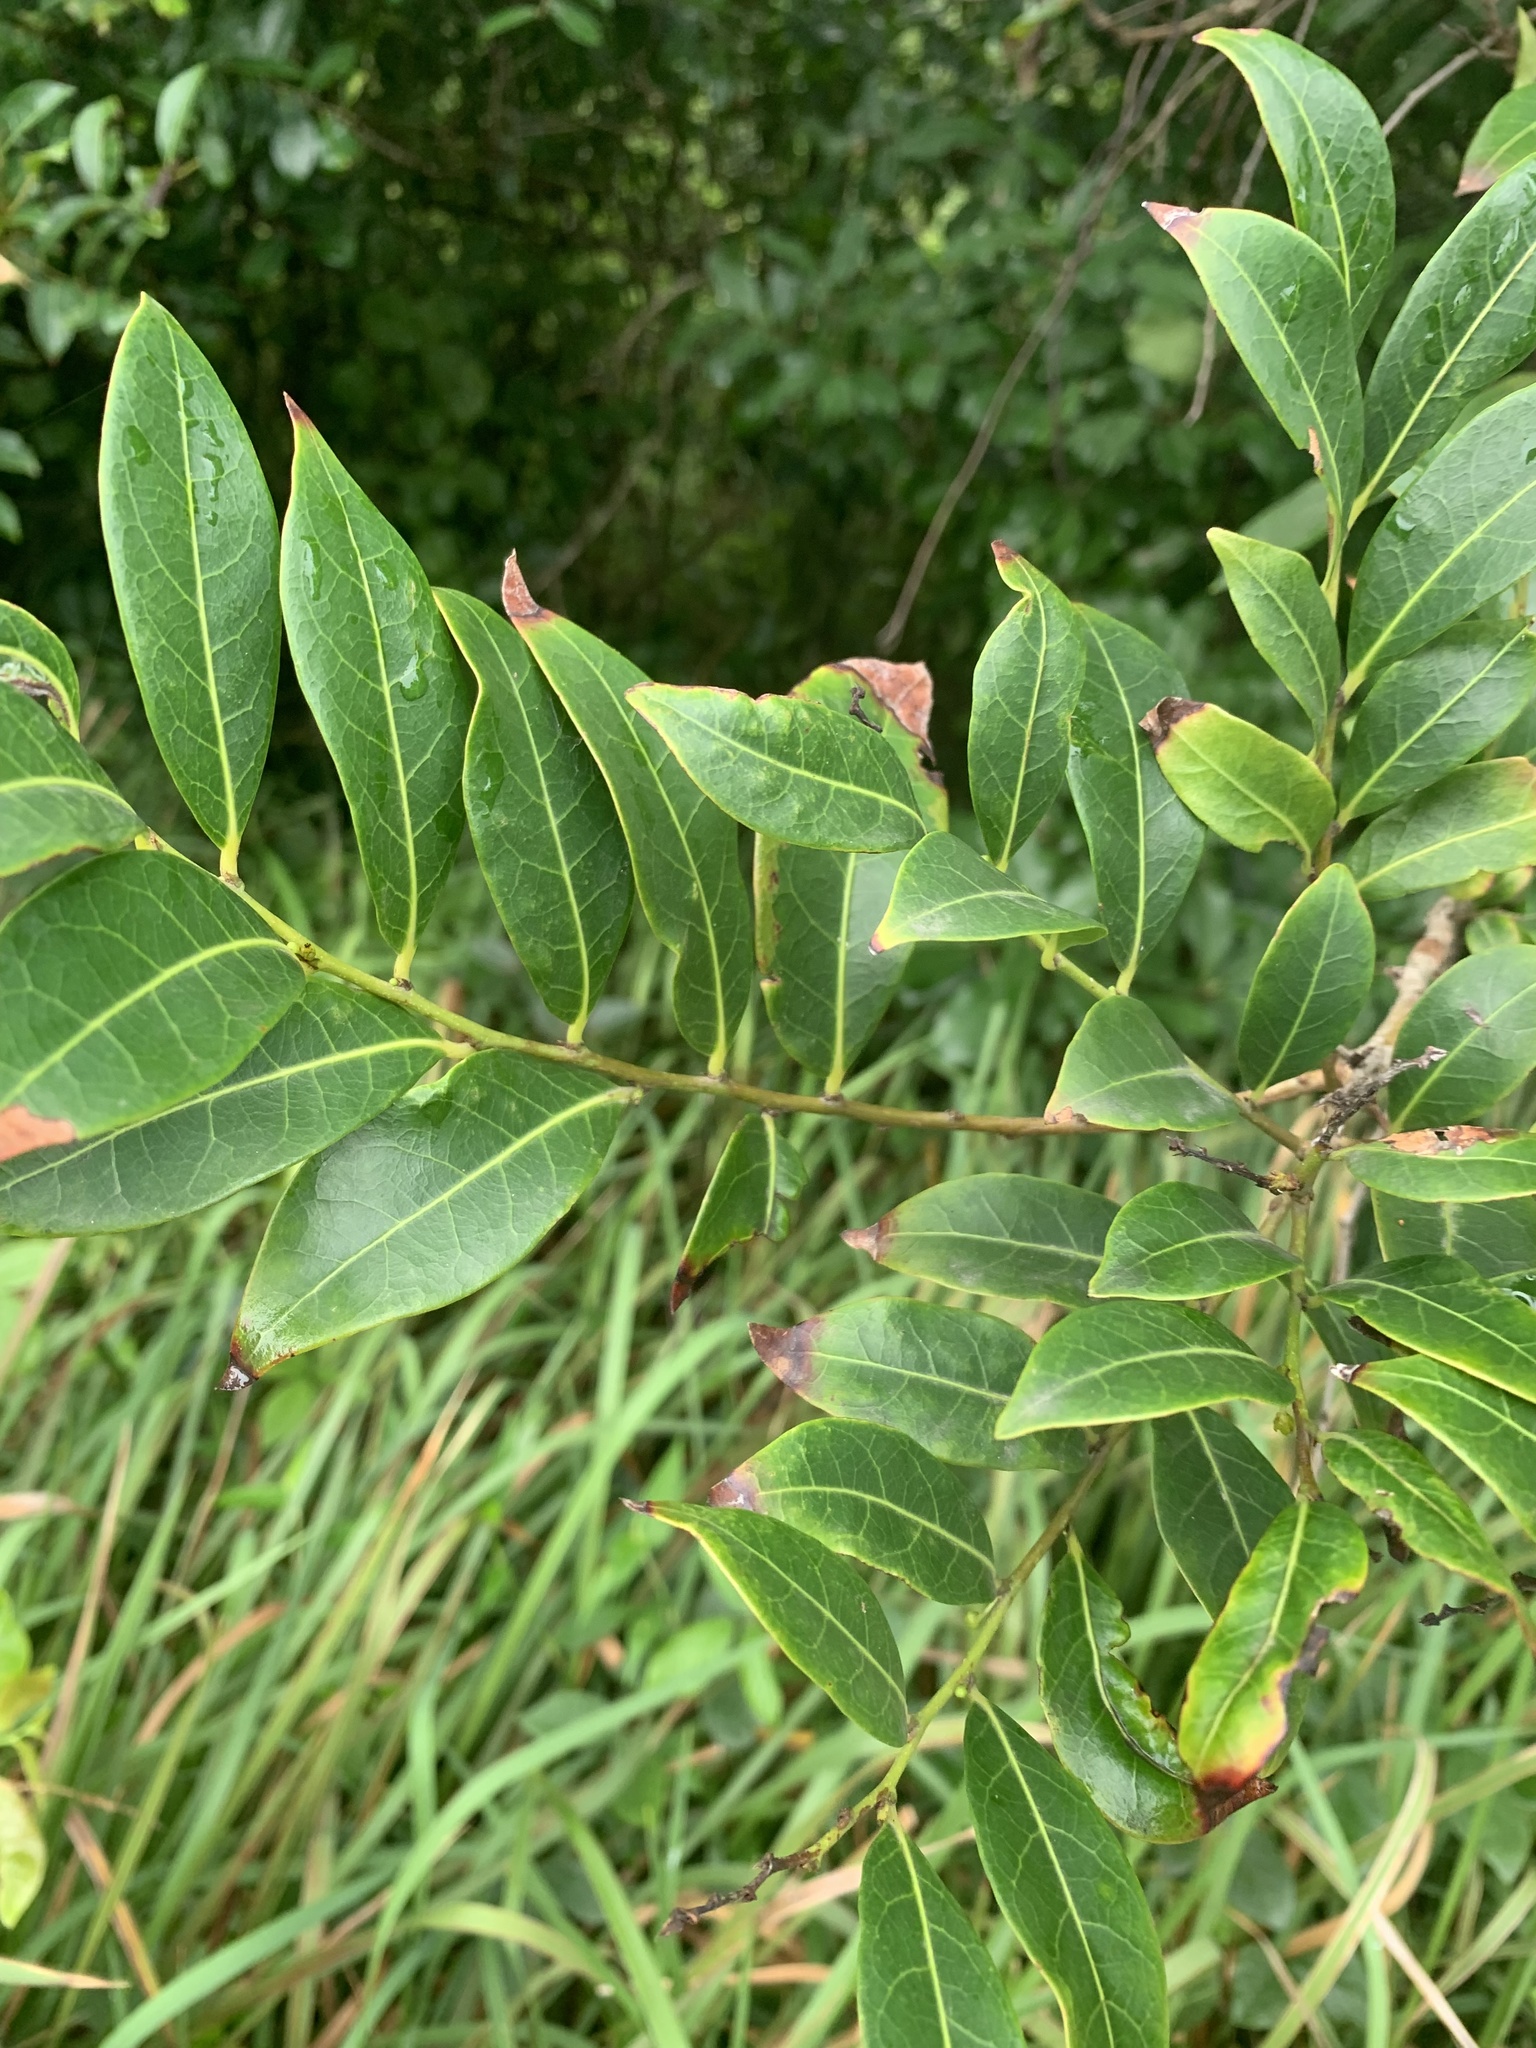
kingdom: Plantae
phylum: Tracheophyta
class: Magnoliopsida
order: Malpighiales
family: Phyllanthaceae
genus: Glochidion
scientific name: Glochidion ferdinandi
